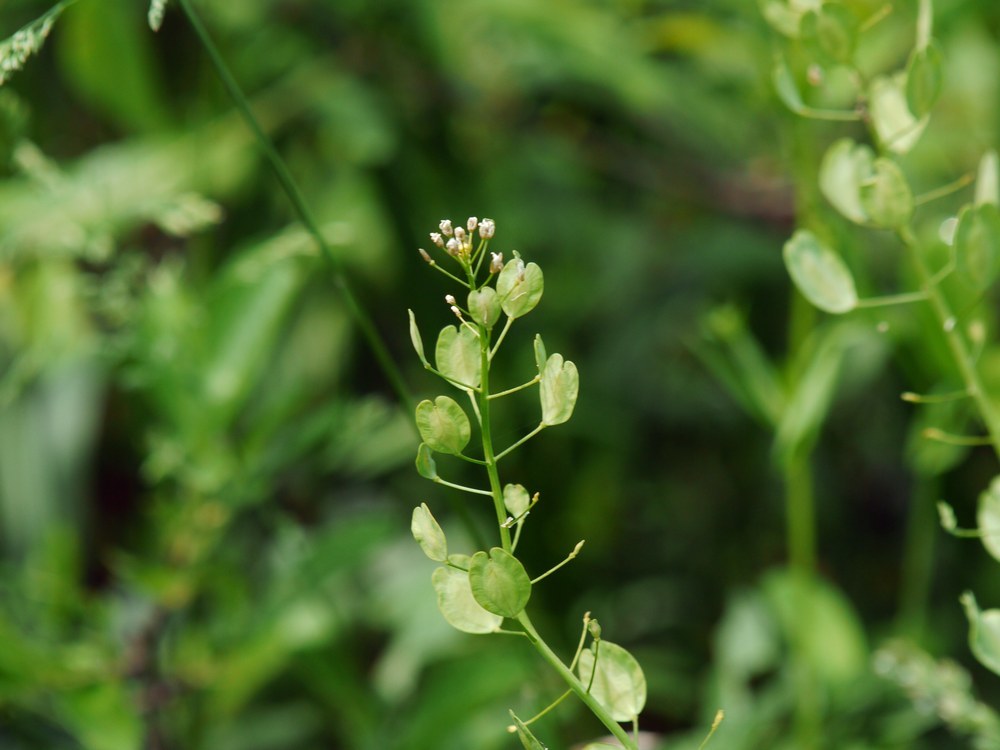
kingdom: Plantae
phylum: Tracheophyta
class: Magnoliopsida
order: Brassicales
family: Brassicaceae
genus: Thlaspi
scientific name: Thlaspi arvense
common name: Field pennycress
